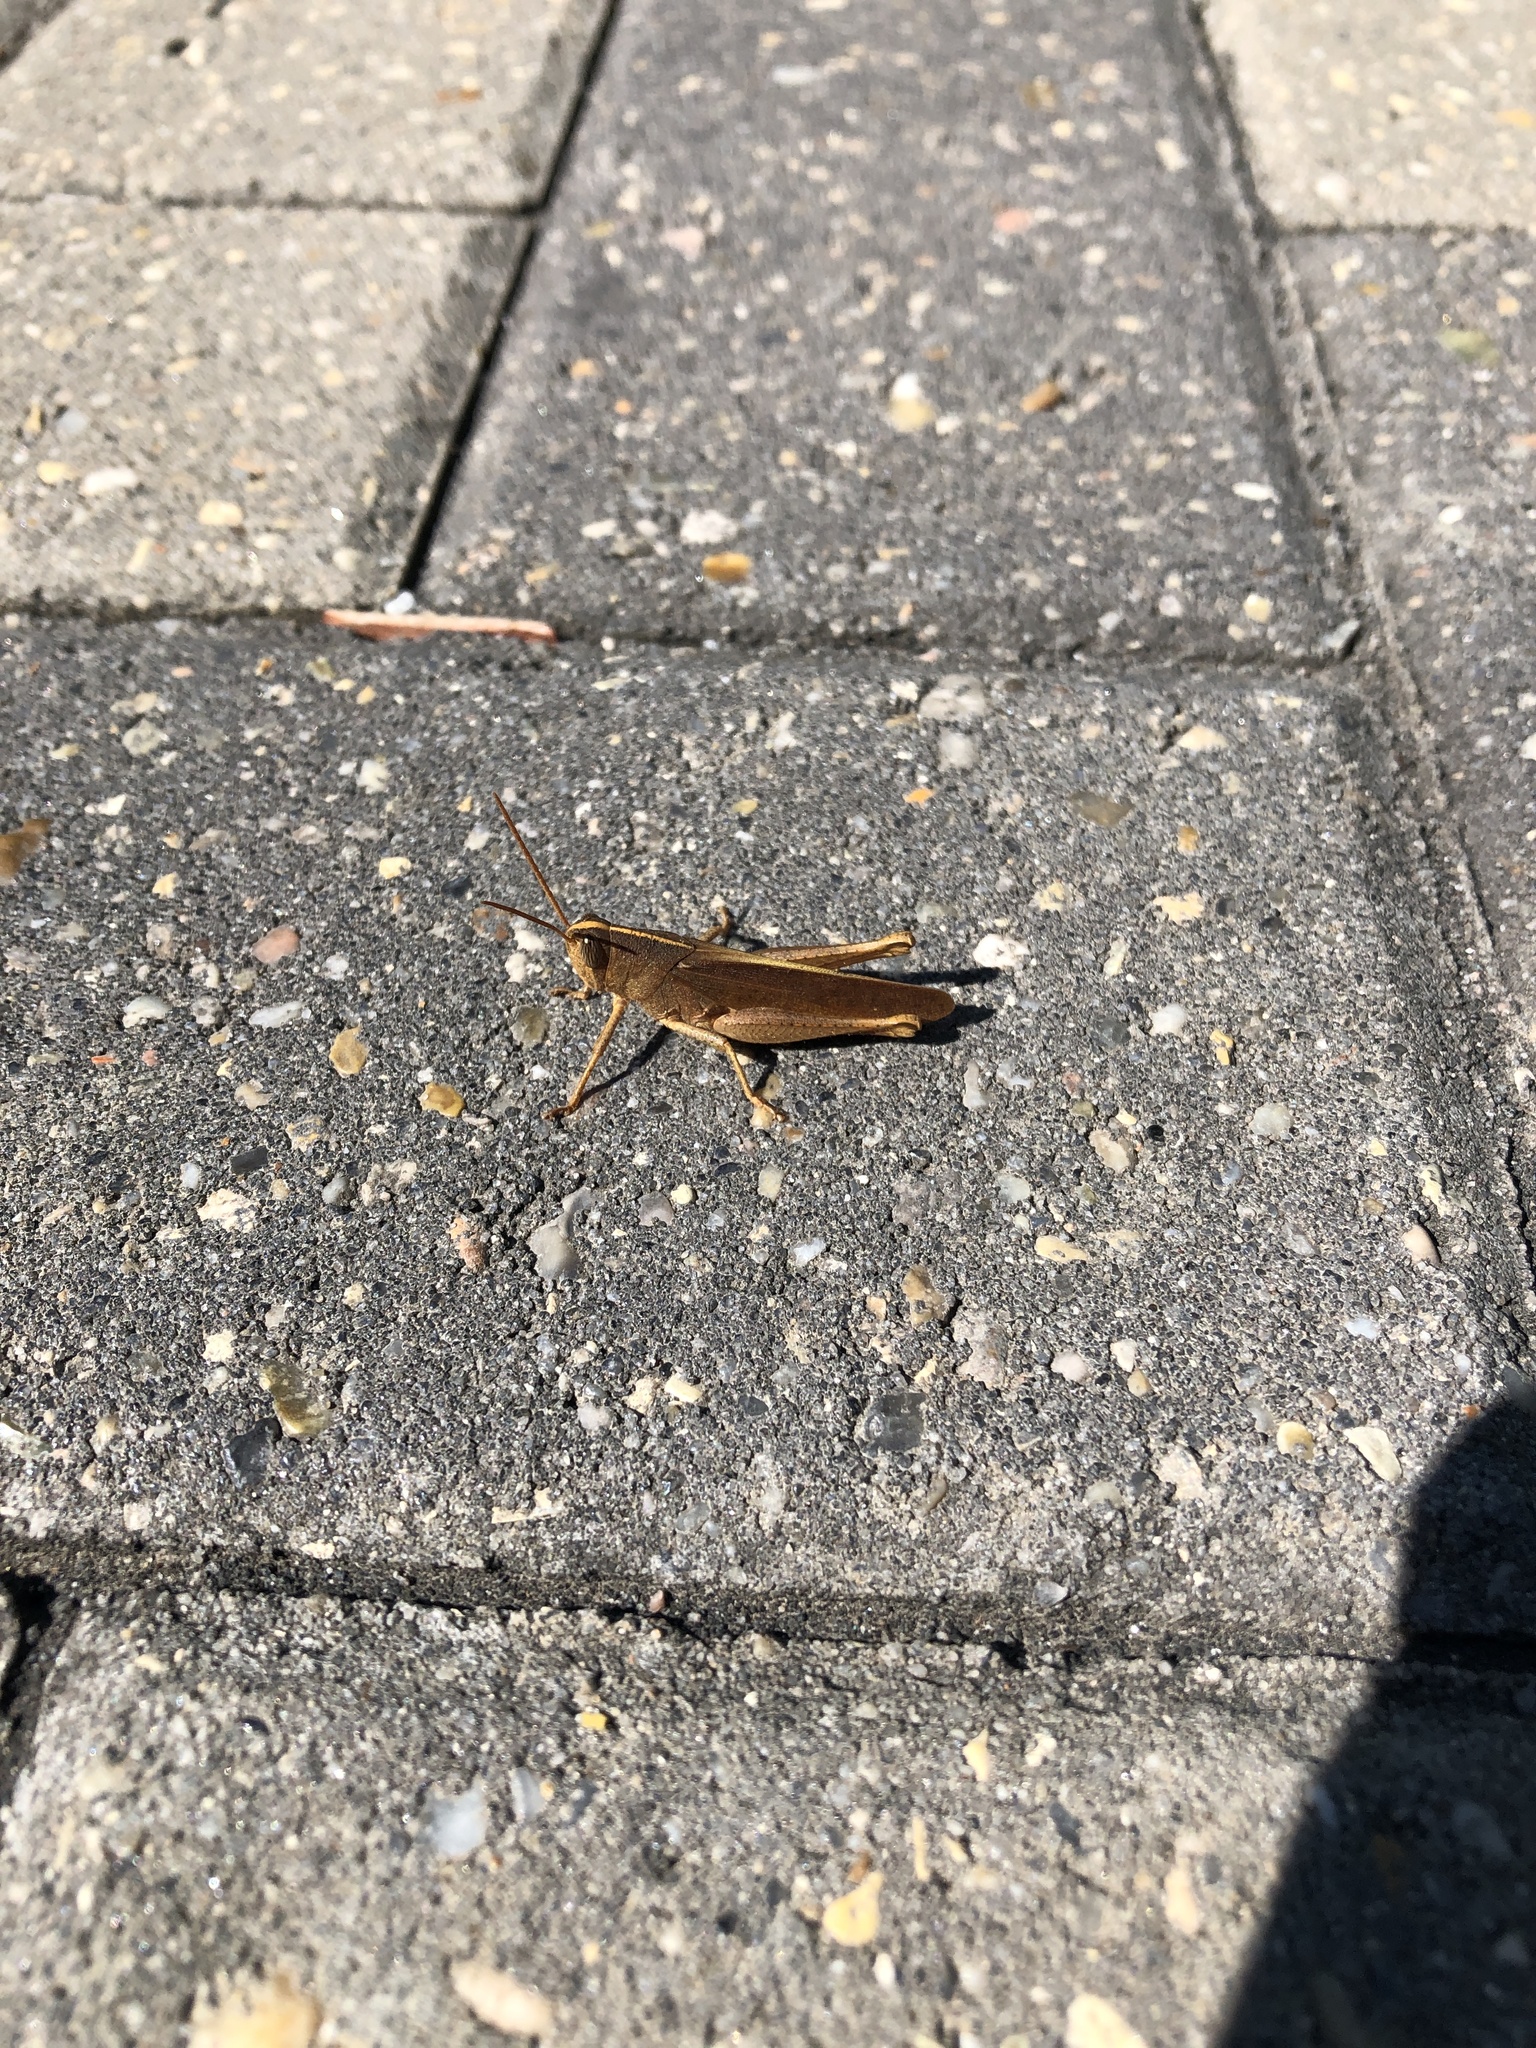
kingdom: Animalia
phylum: Arthropoda
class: Insecta
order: Orthoptera
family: Acrididae
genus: Schistocerca
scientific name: Schistocerca damnifica
